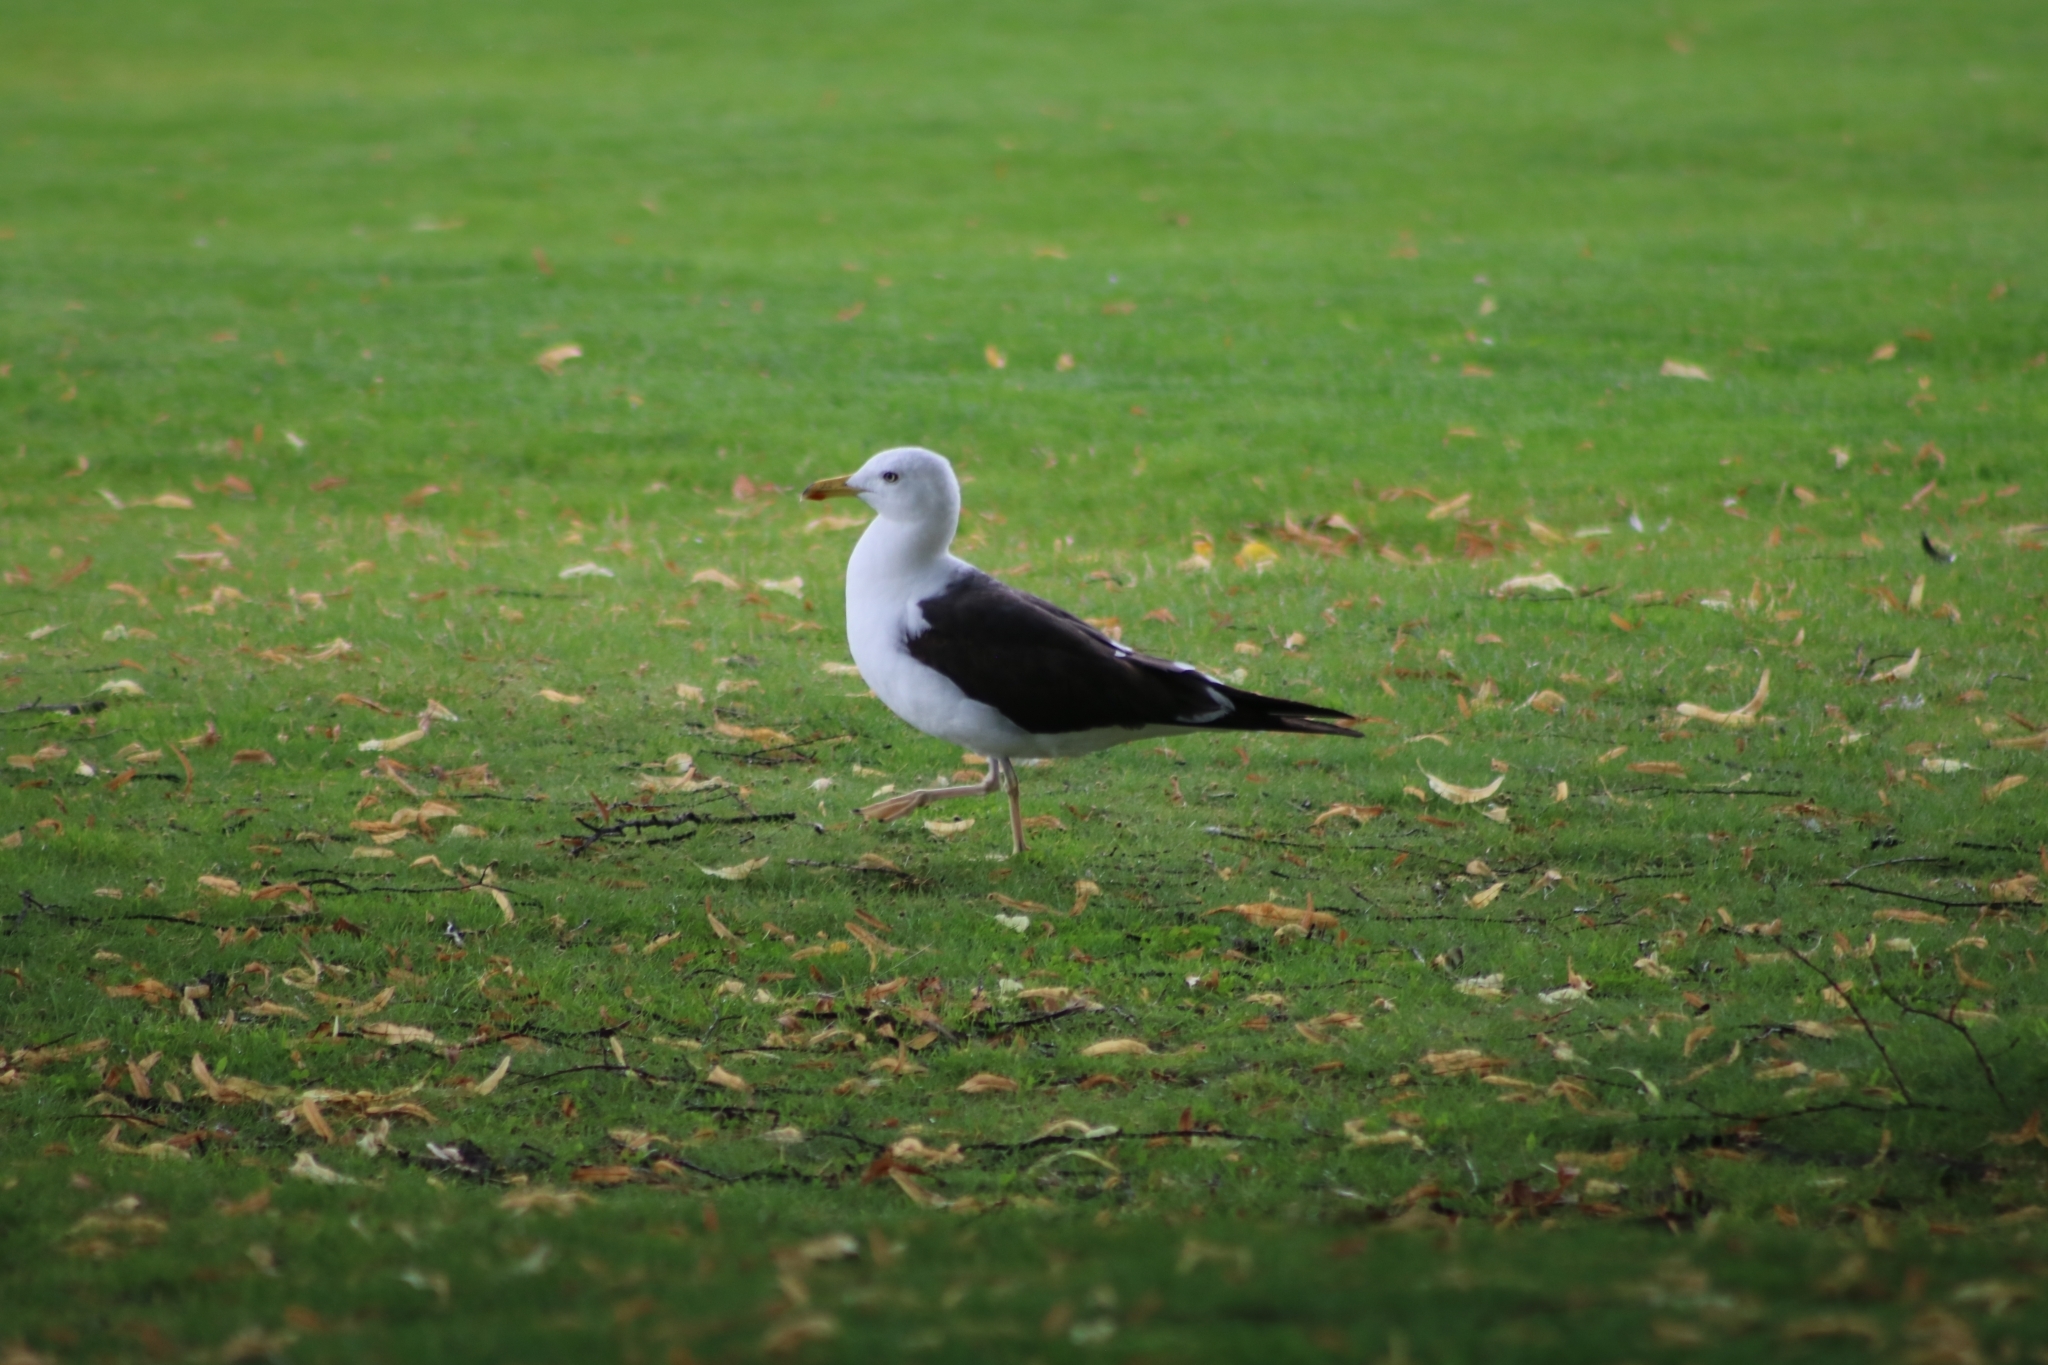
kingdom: Animalia
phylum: Chordata
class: Aves
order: Charadriiformes
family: Laridae
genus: Larus
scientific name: Larus marinus
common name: Great black-backed gull
